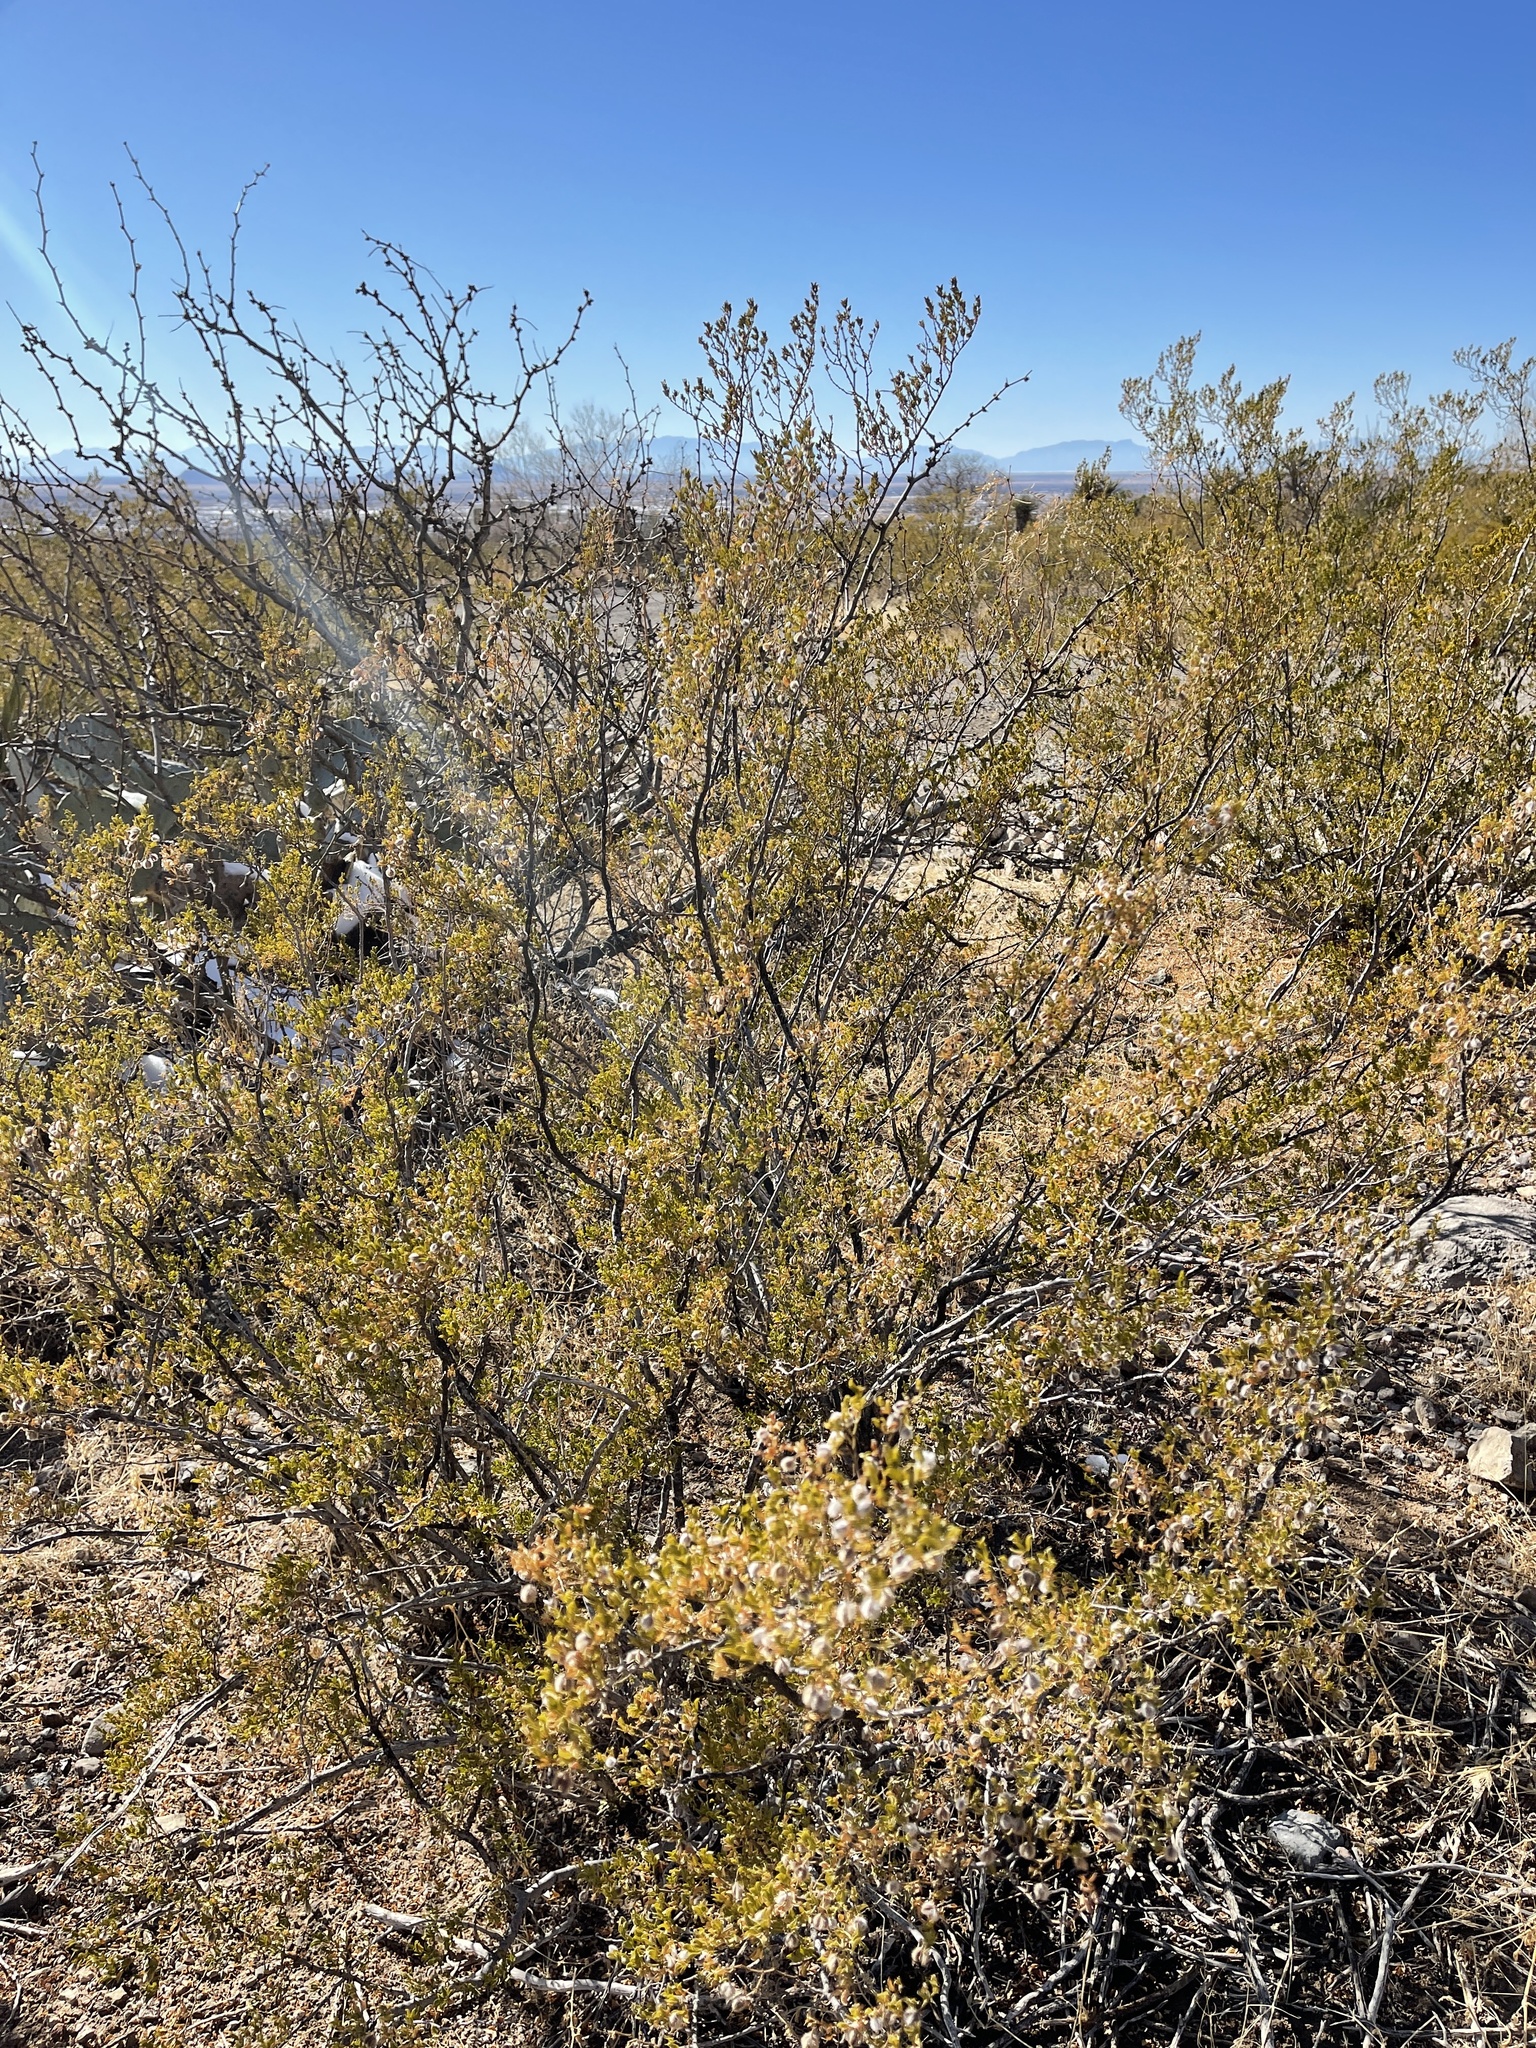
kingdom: Plantae
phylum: Tracheophyta
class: Magnoliopsida
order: Zygophyllales
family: Zygophyllaceae
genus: Larrea
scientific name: Larrea tridentata
